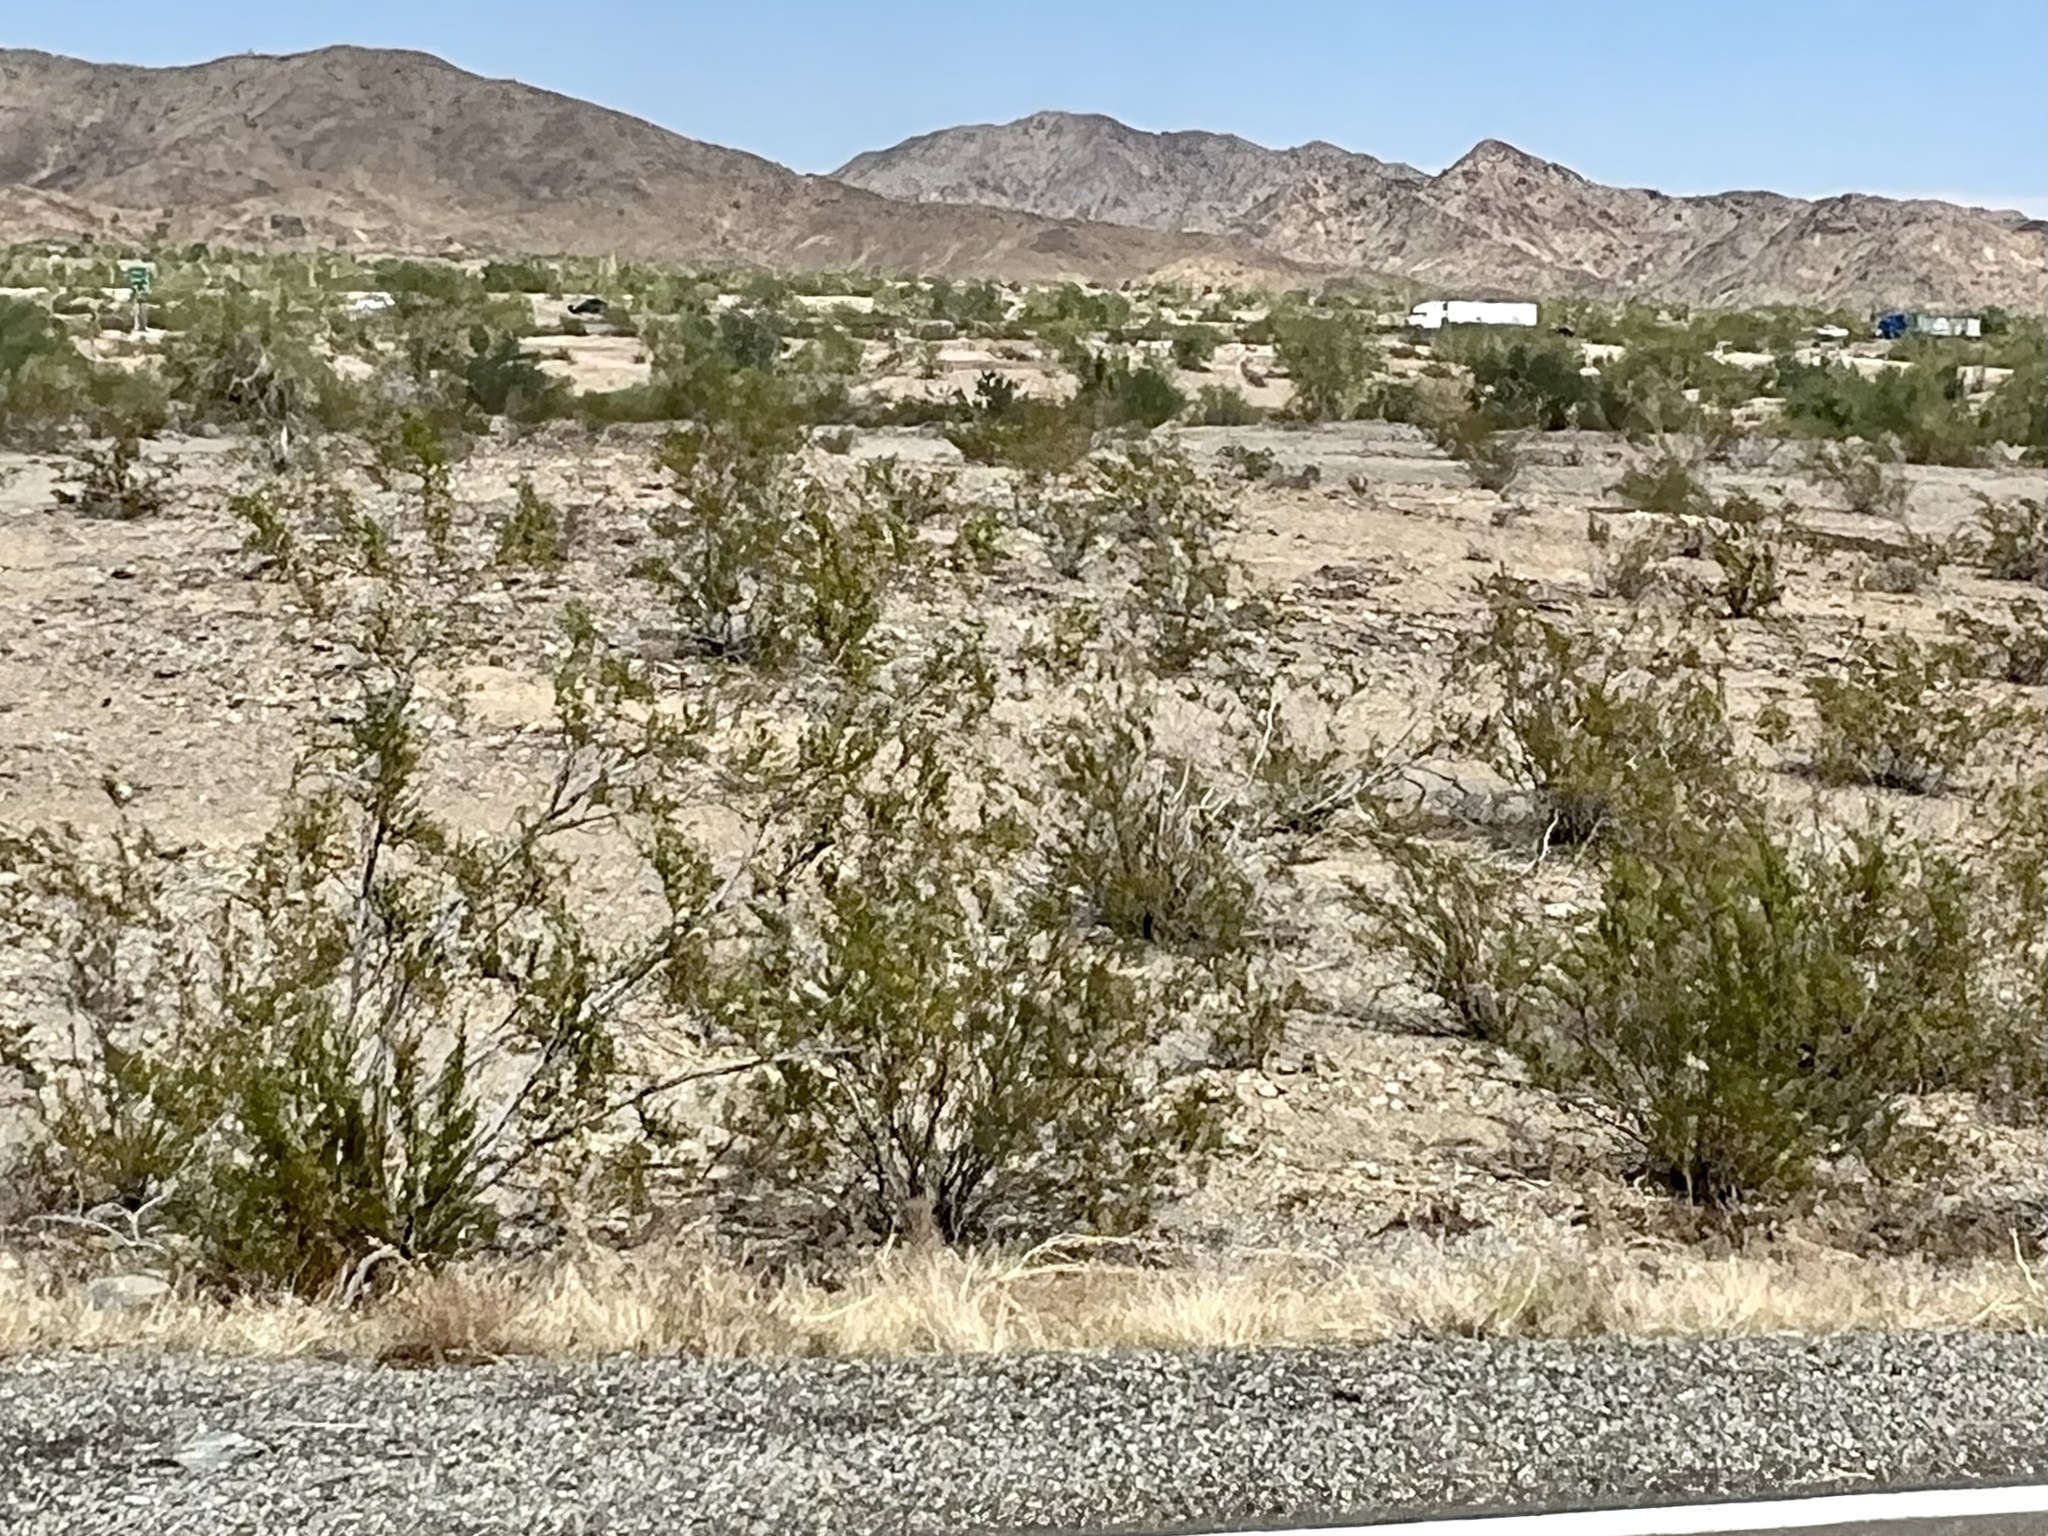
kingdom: Plantae
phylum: Tracheophyta
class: Magnoliopsida
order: Zygophyllales
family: Zygophyllaceae
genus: Larrea
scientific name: Larrea tridentata
